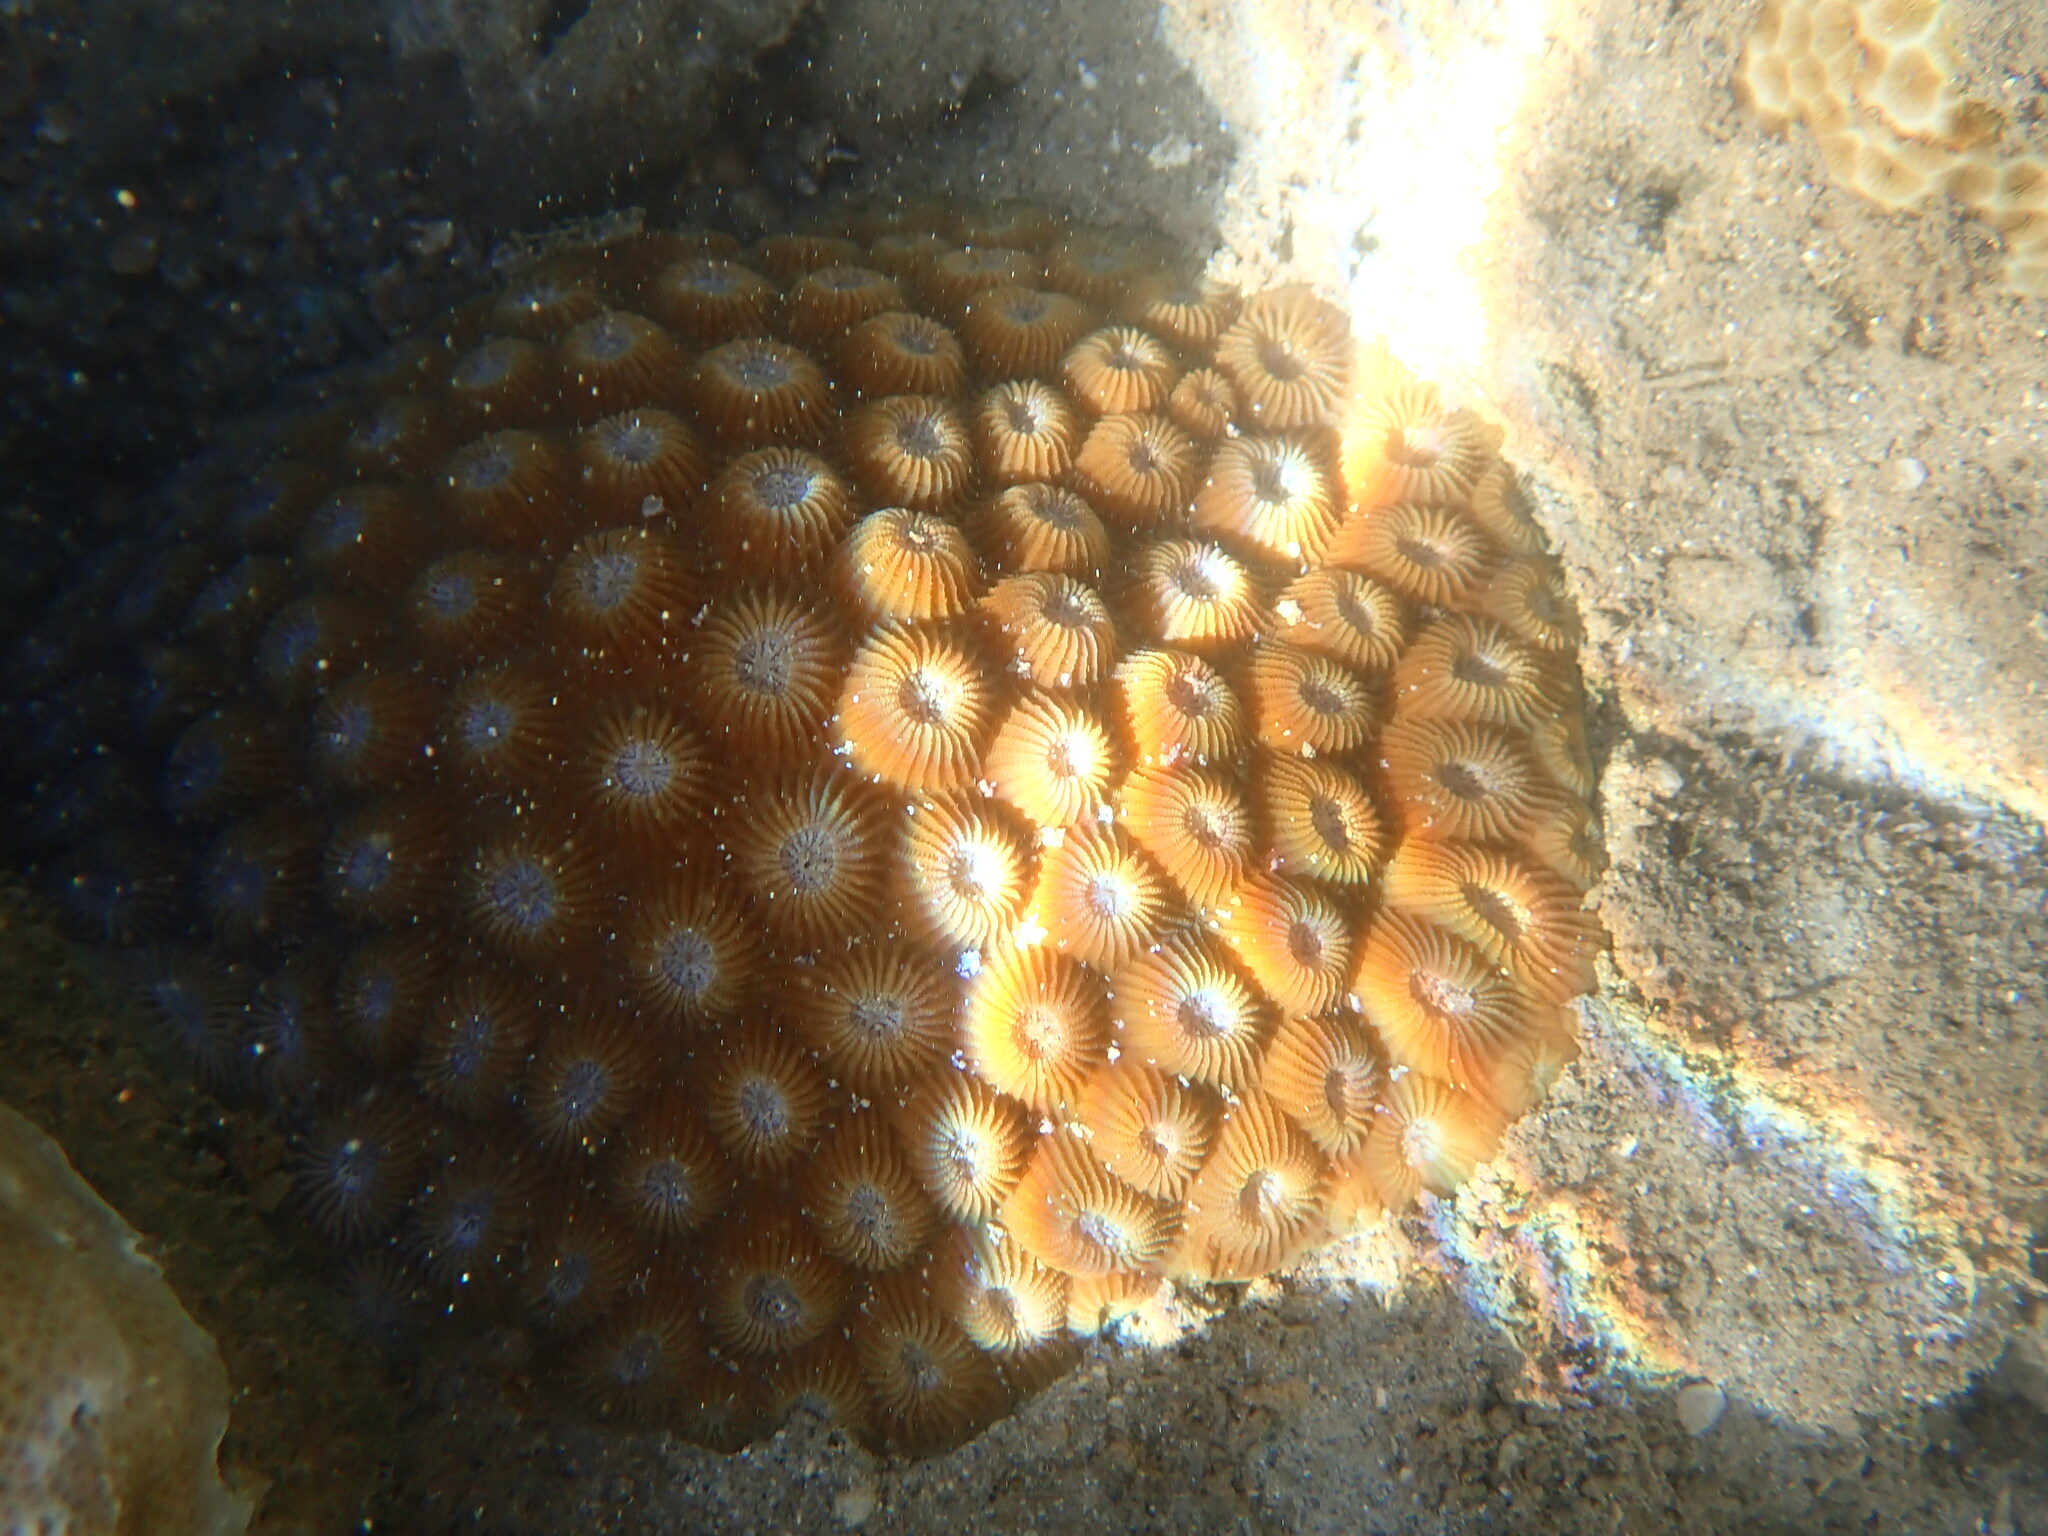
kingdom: Animalia
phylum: Cnidaria
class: Anthozoa
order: Scleractinia
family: Diploastraeidae
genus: Diploastrea
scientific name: Diploastrea heliopora
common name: Double-star coral
